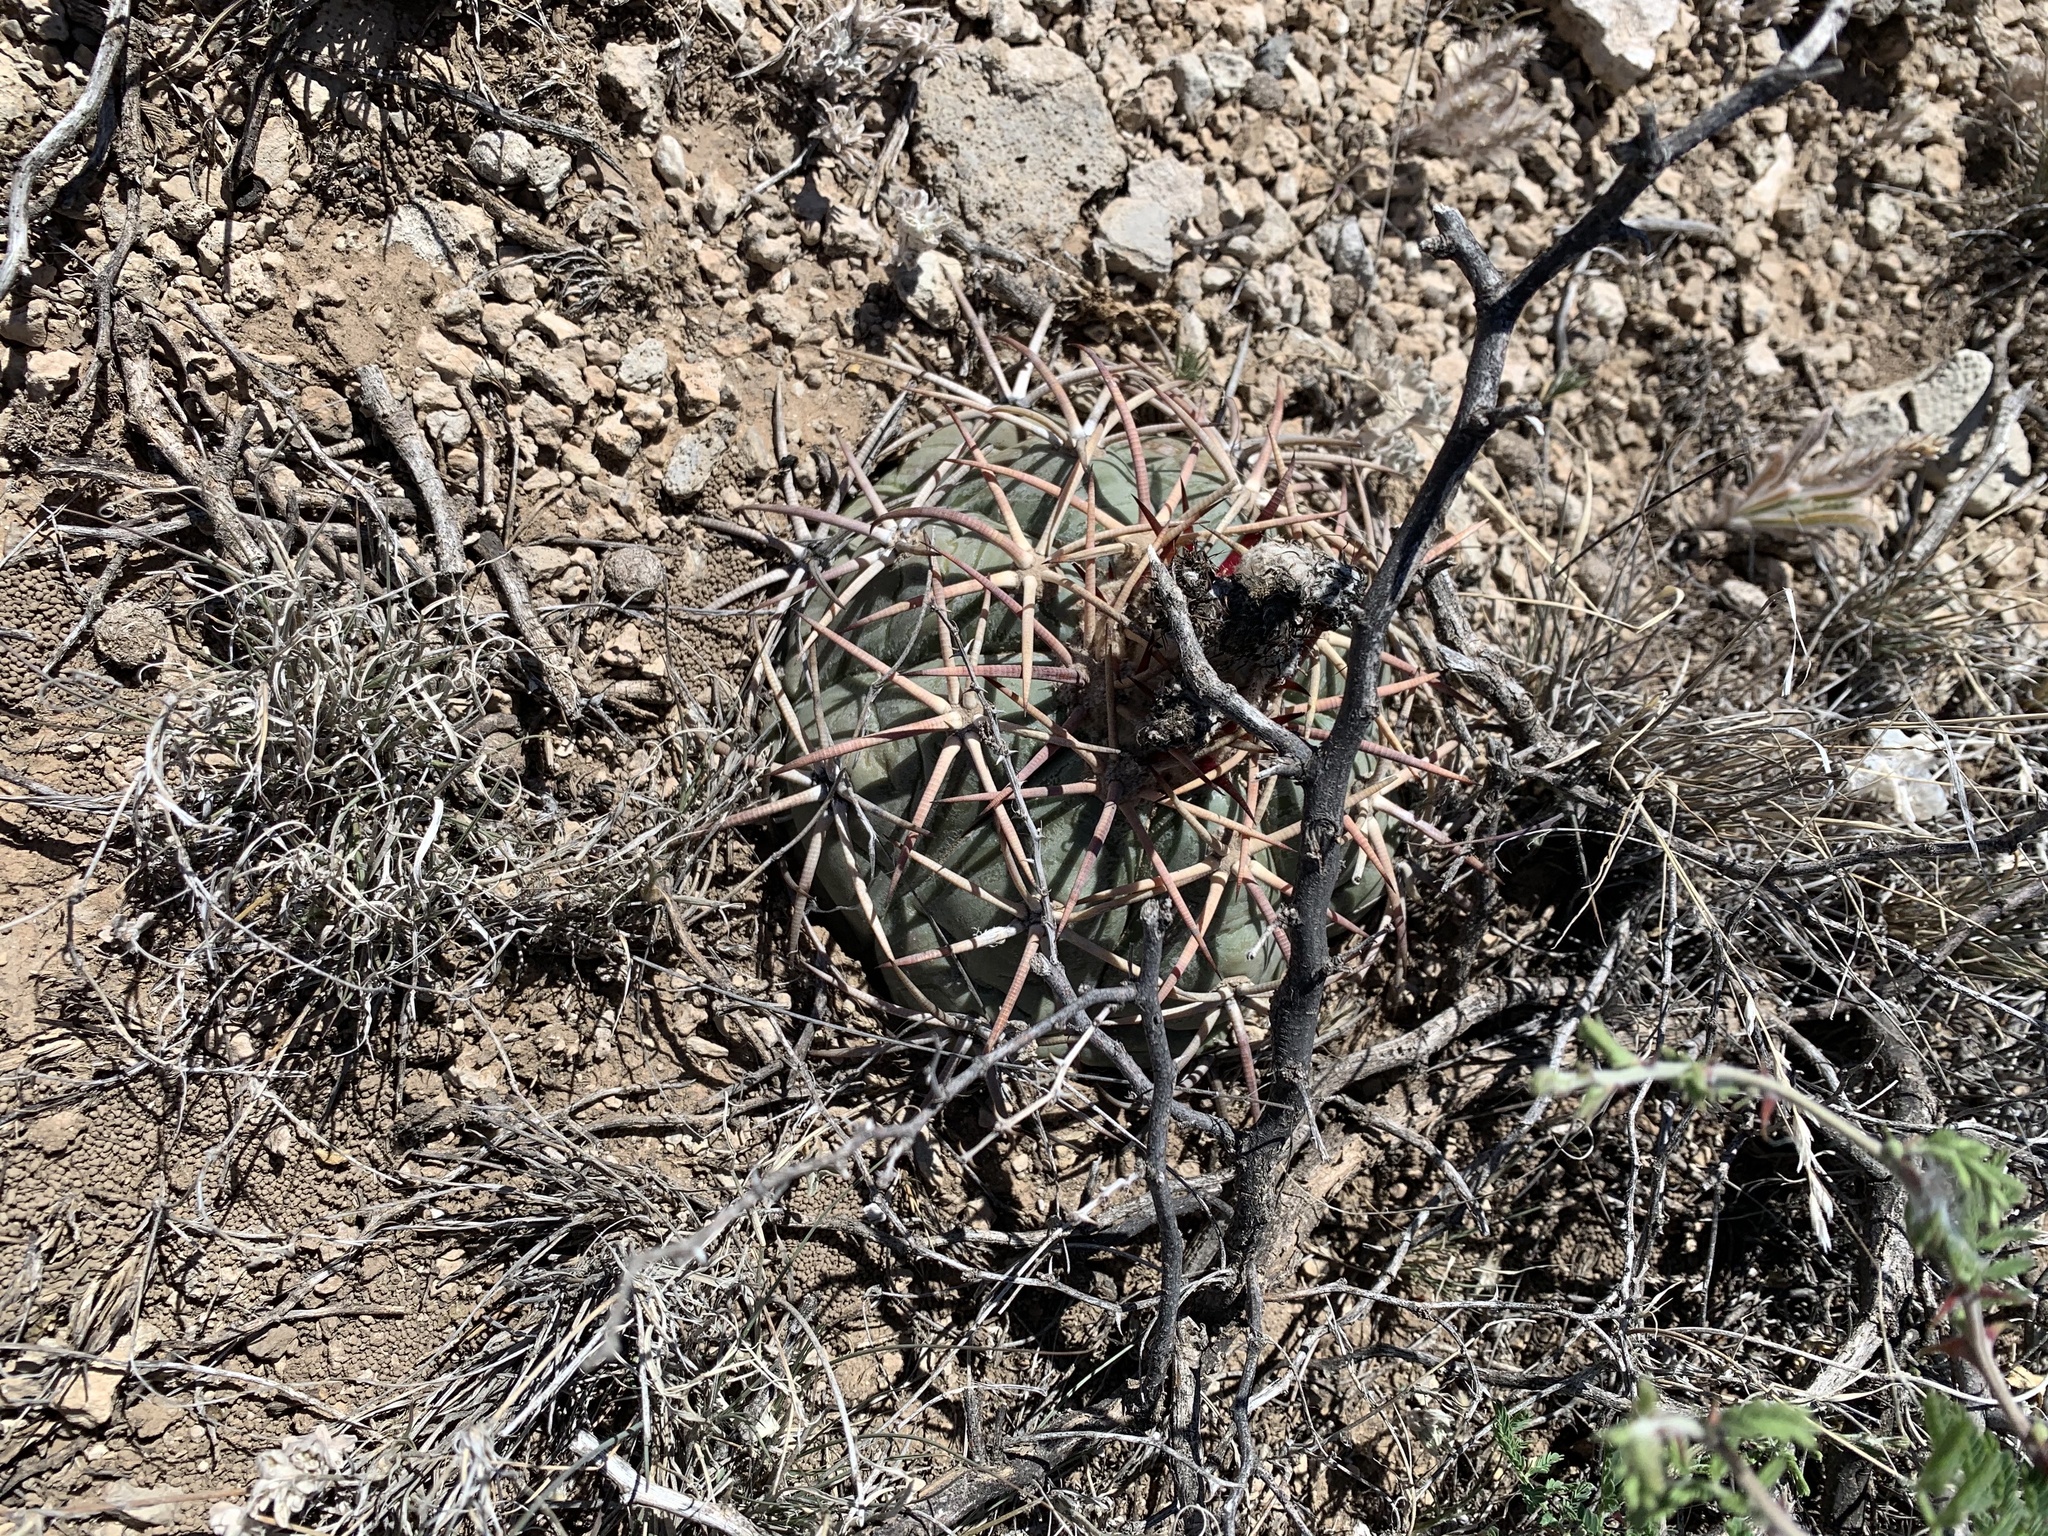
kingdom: Plantae
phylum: Tracheophyta
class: Magnoliopsida
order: Caryophyllales
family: Cactaceae
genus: Echinocactus
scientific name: Echinocactus horizonthalonius
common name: Devilshead
